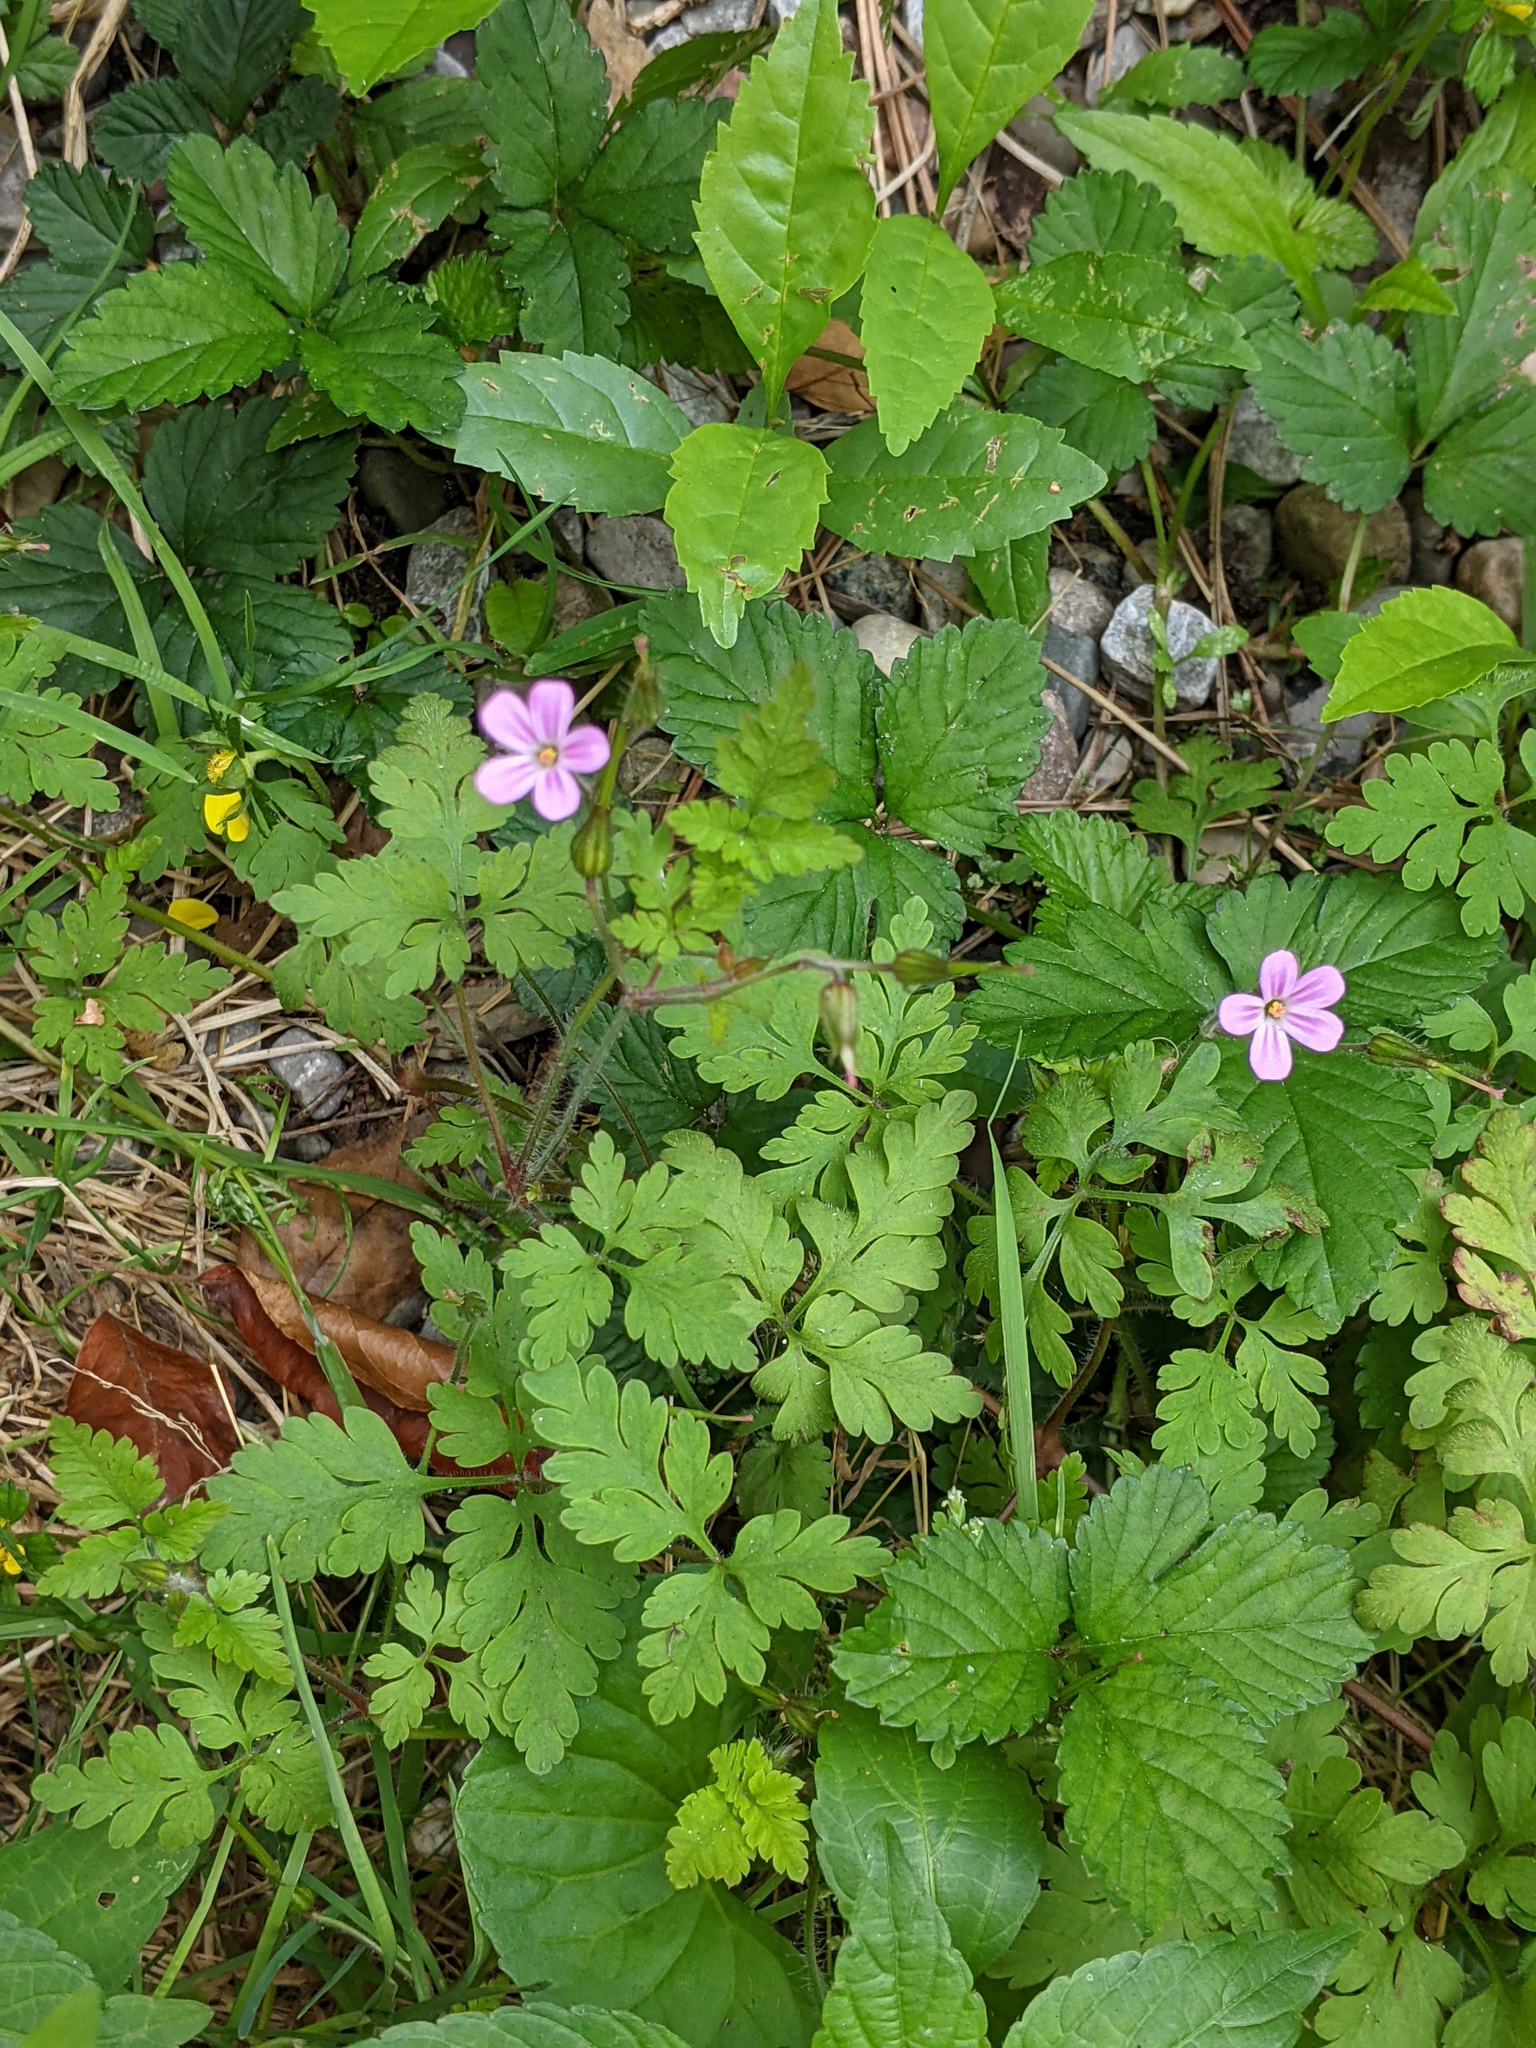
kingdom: Plantae
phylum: Tracheophyta
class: Magnoliopsida
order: Geraniales
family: Geraniaceae
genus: Geranium
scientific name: Geranium robertianum
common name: Herb-robert
